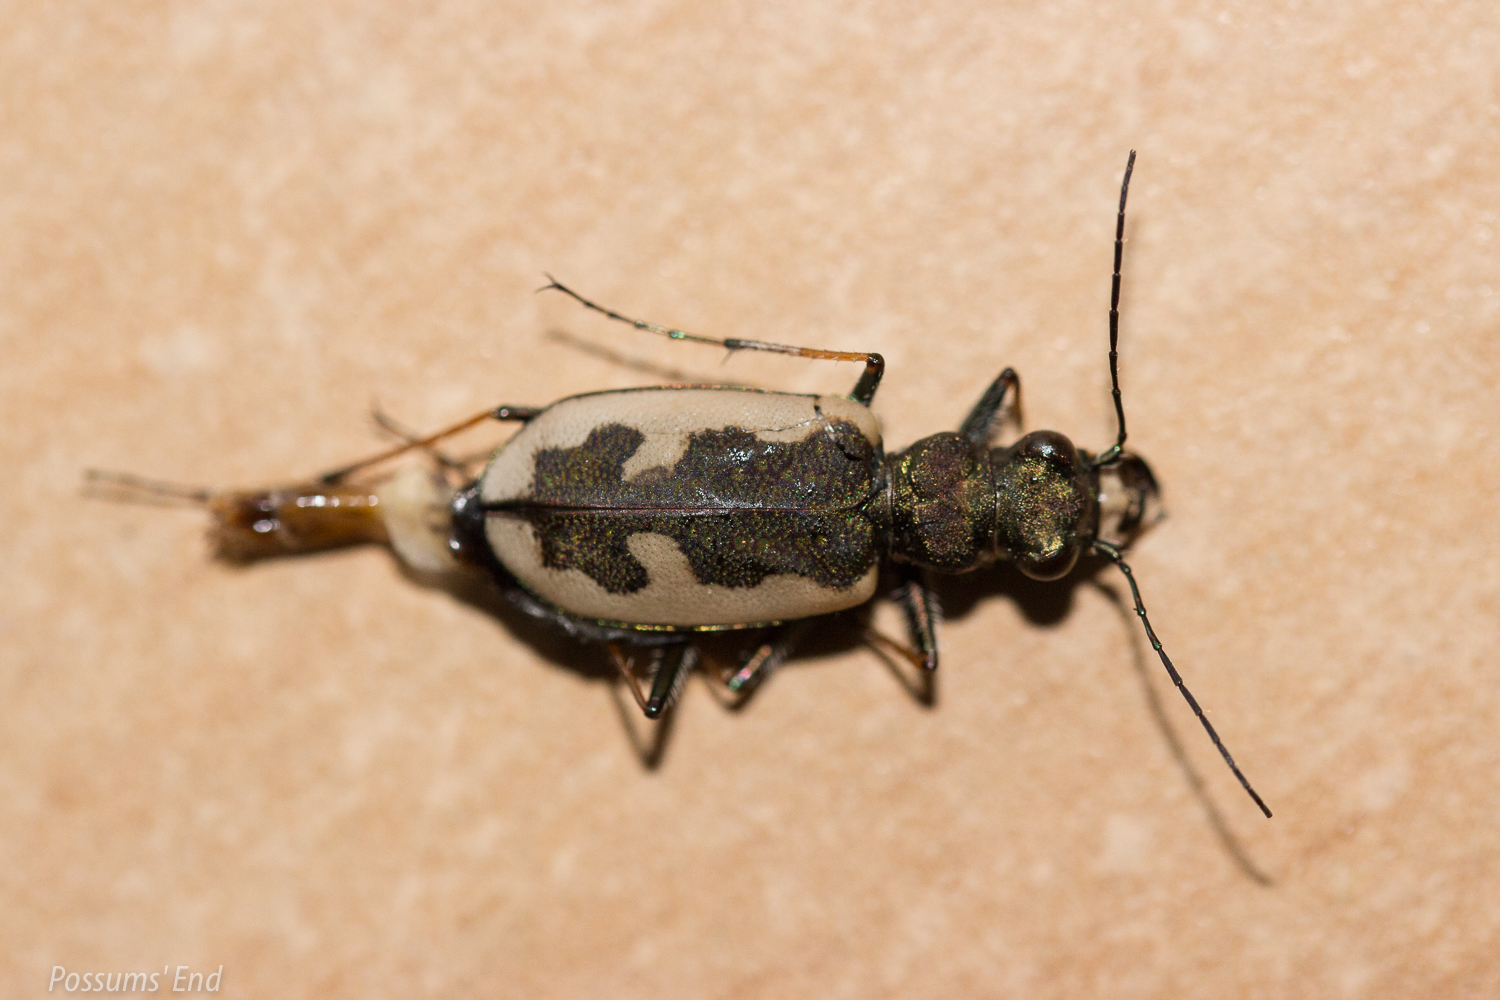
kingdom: Animalia
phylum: Arthropoda
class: Insecta
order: Coleoptera
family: Carabidae
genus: Neocicindela
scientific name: Neocicindela latecincta
